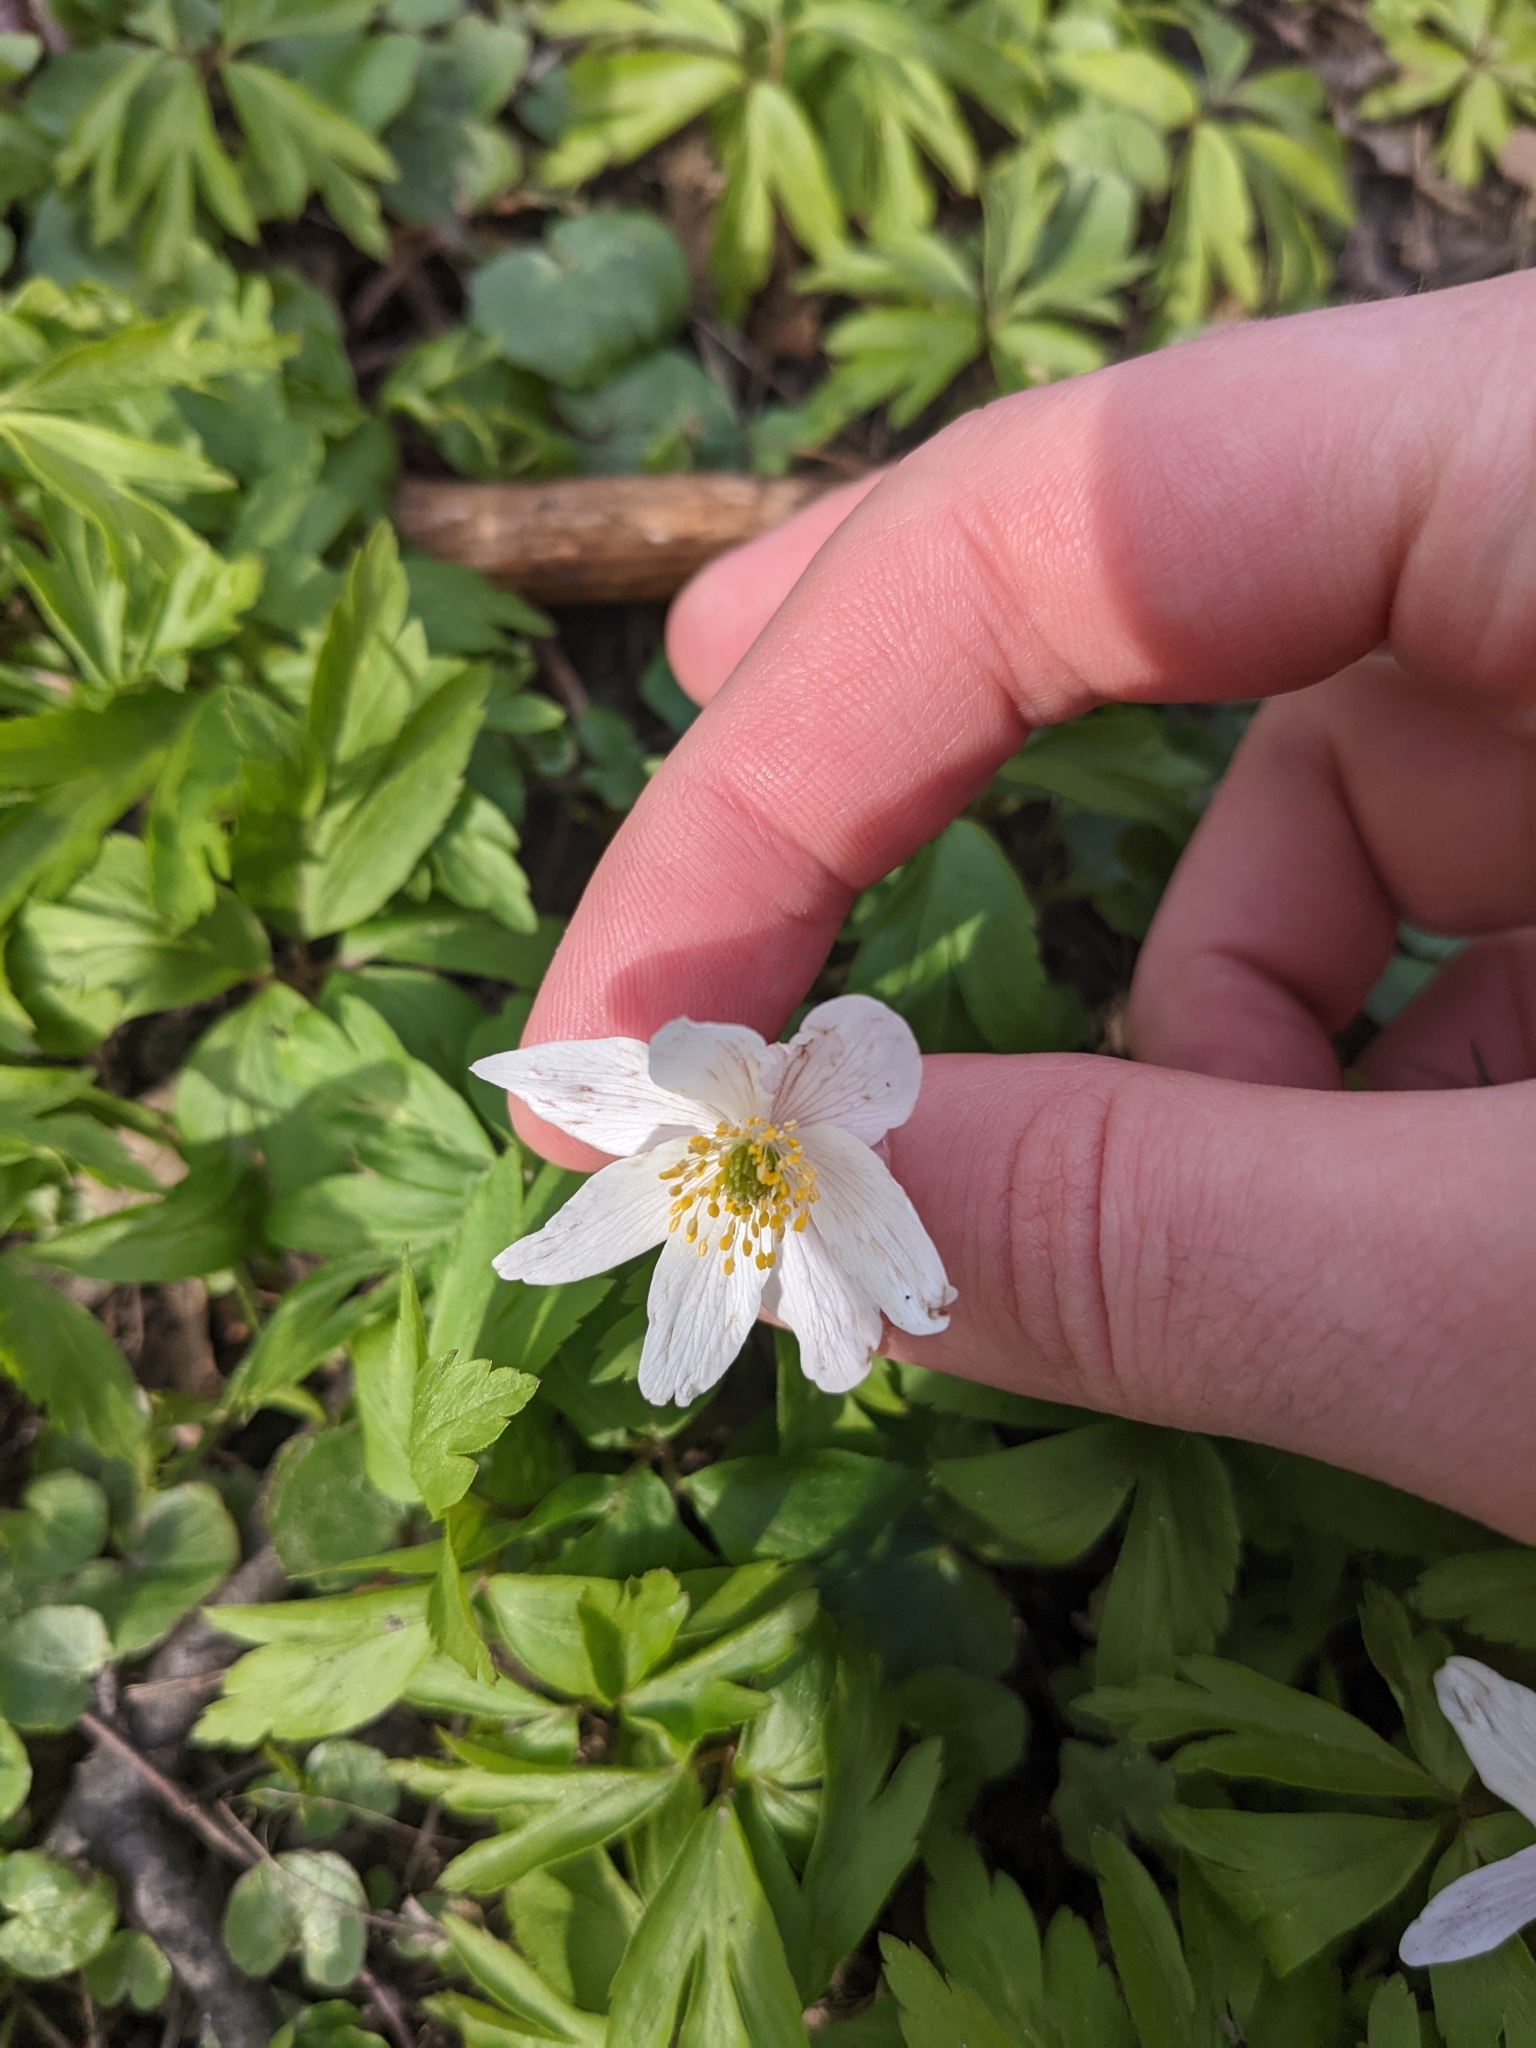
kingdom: Plantae
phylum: Tracheophyta
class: Magnoliopsida
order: Ranunculales
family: Ranunculaceae
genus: Anemone
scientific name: Anemone nemorosa
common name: Wood anemone
